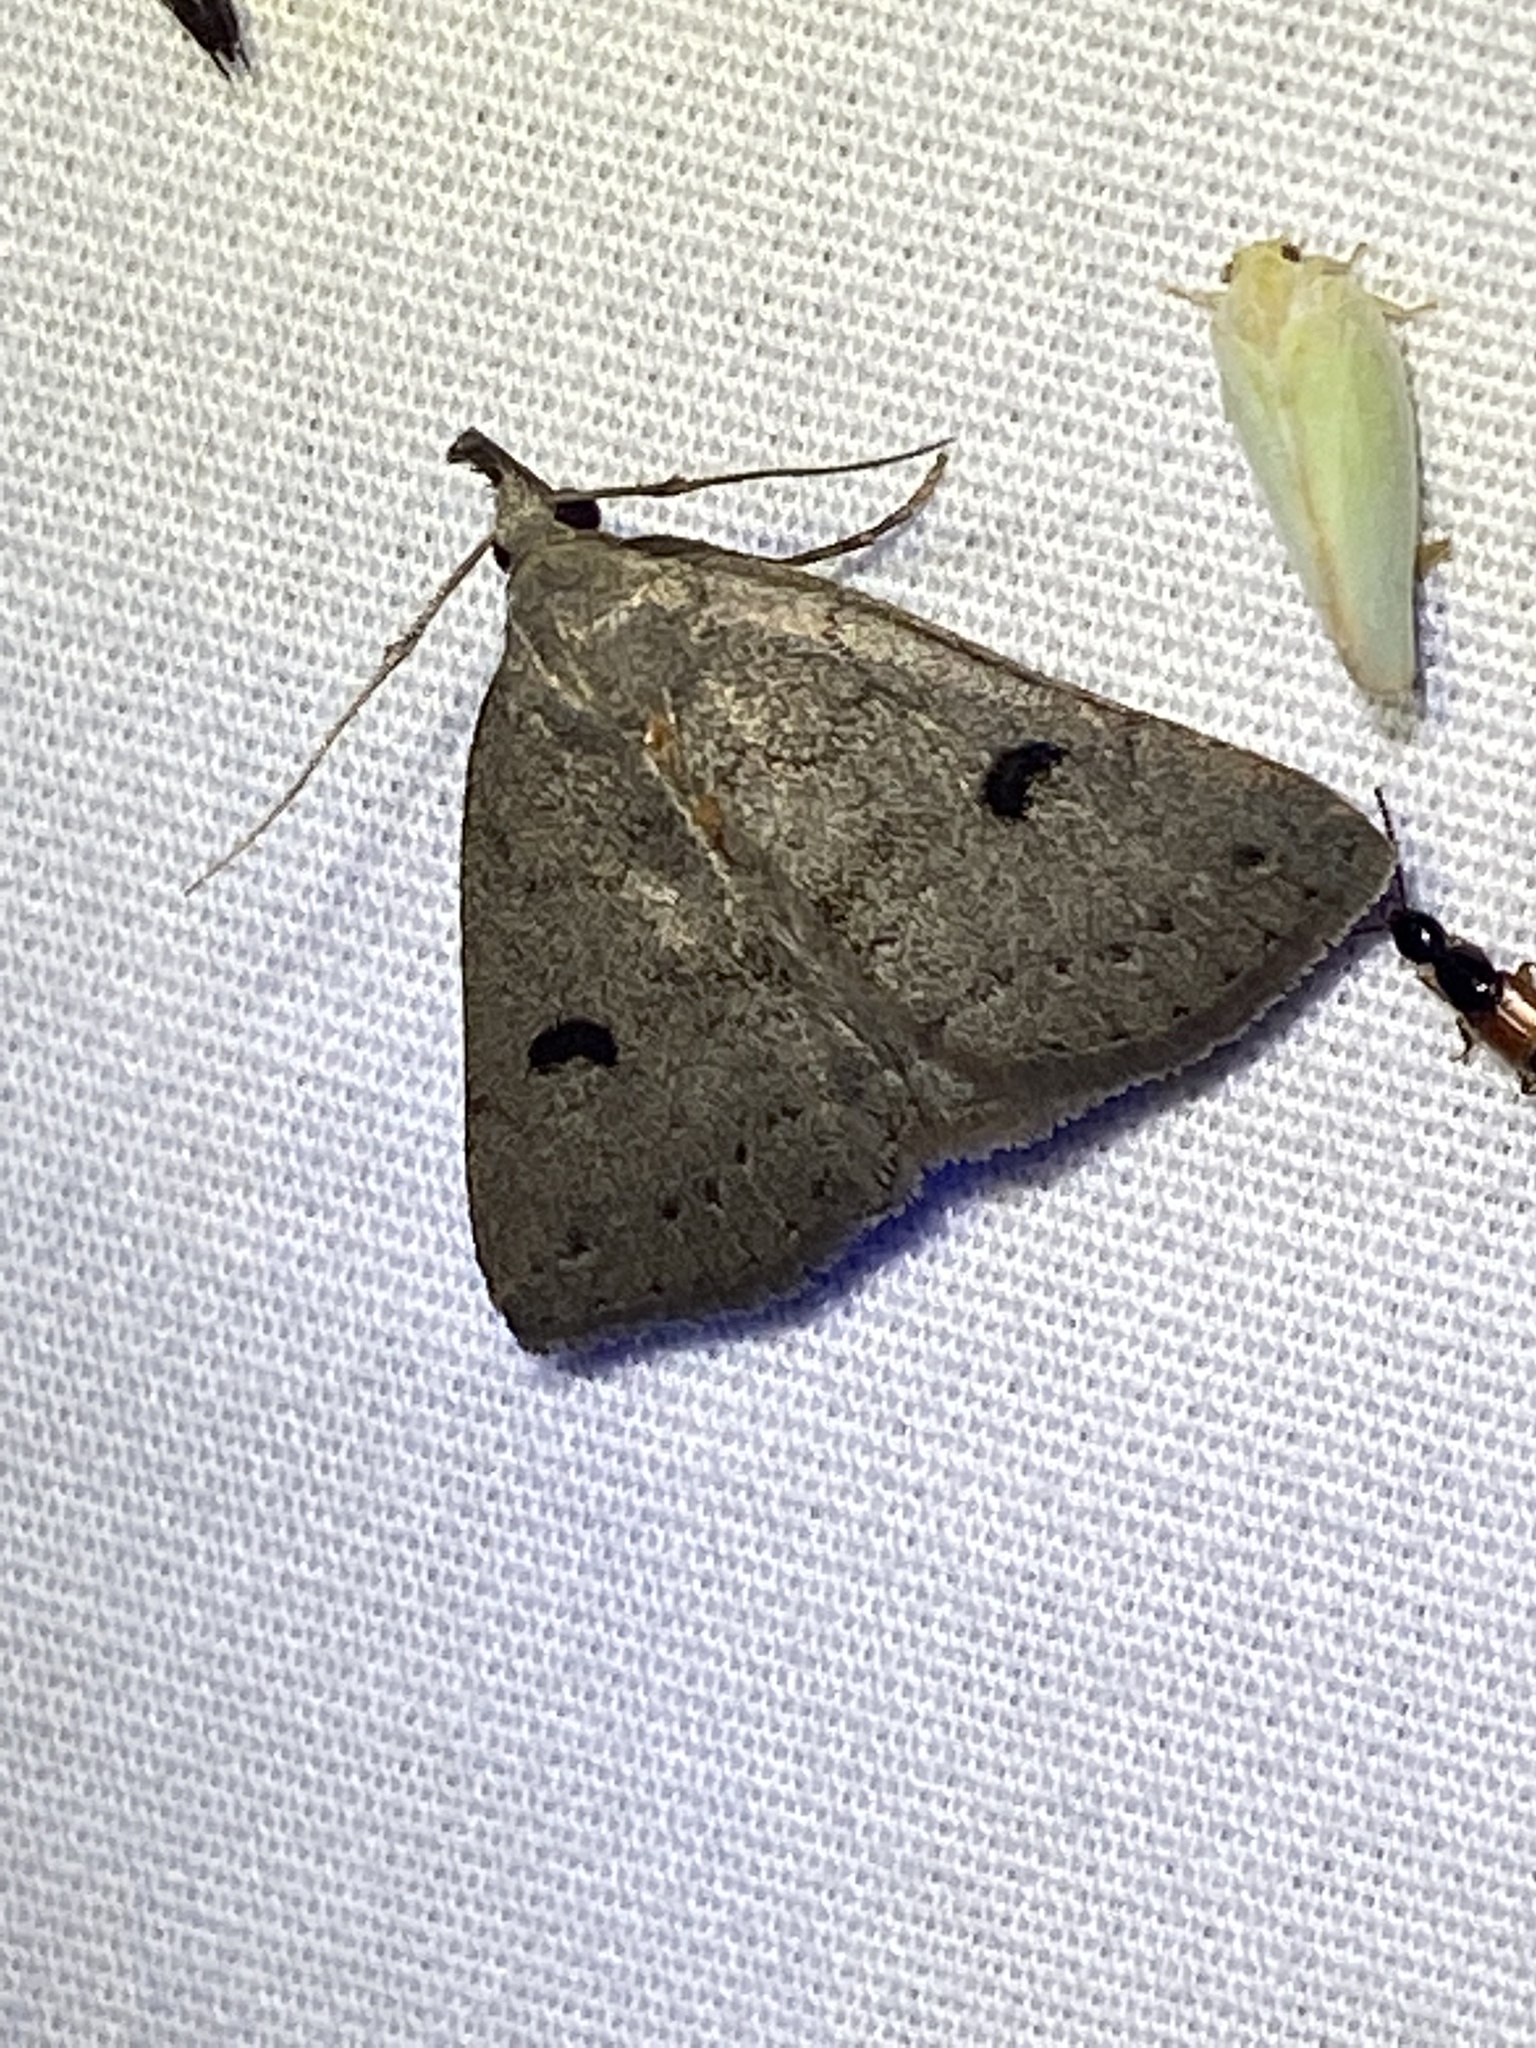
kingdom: Animalia
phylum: Arthropoda
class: Insecta
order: Lepidoptera
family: Erebidae
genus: Macrochilo
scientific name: Macrochilo morbidalis
